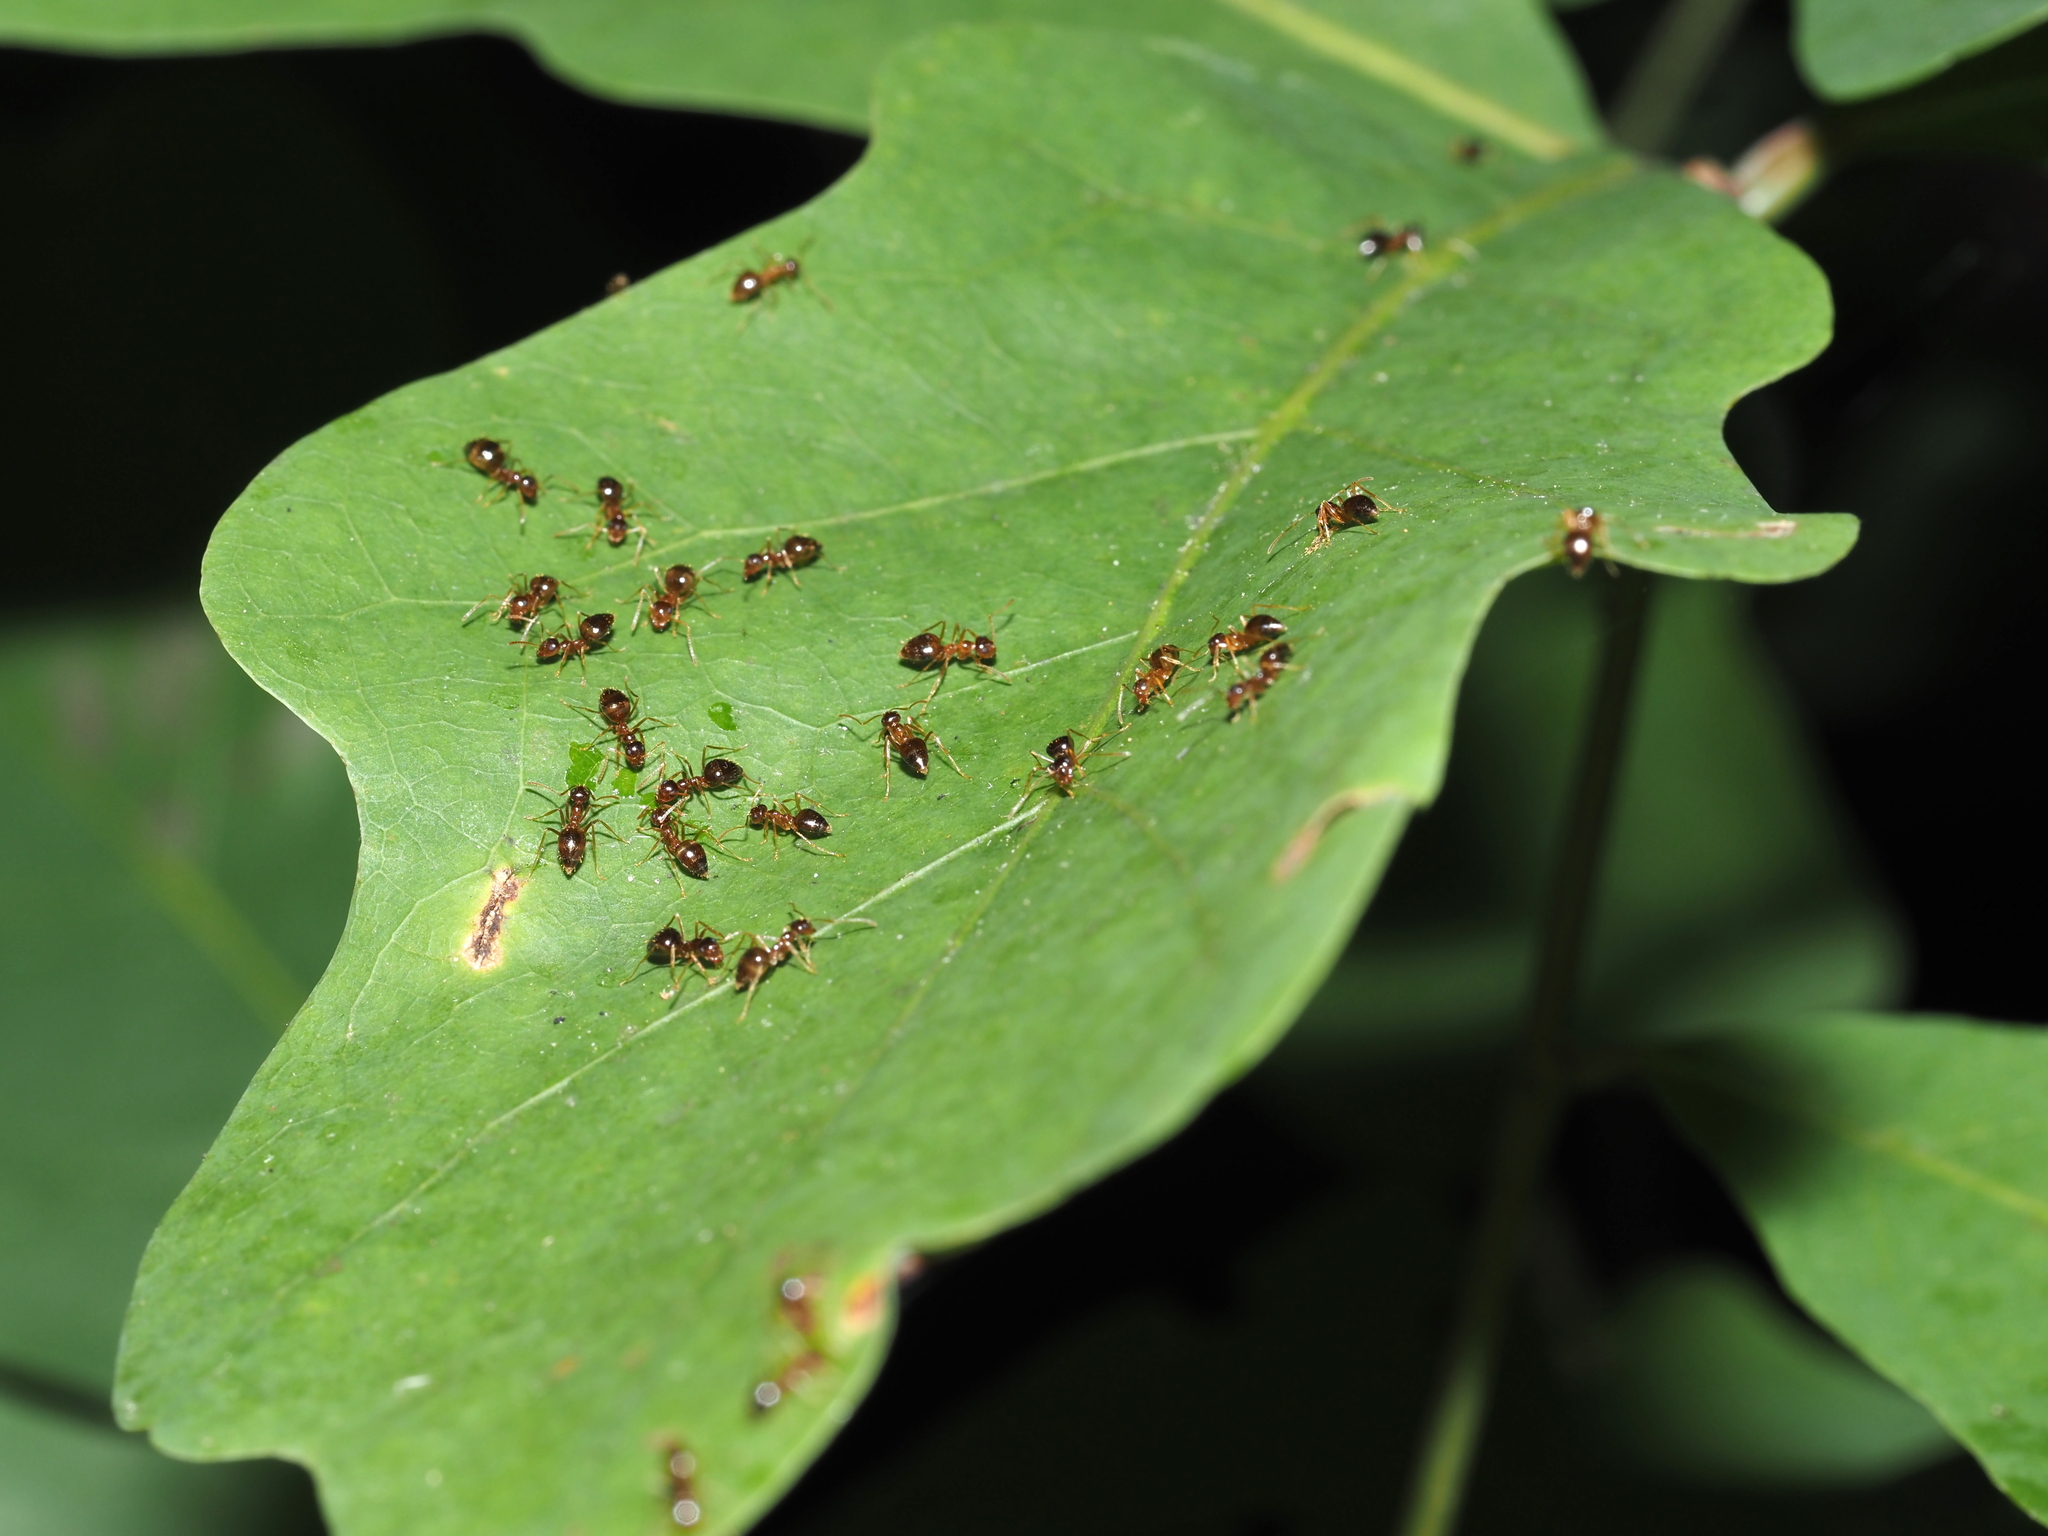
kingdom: Animalia
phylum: Arthropoda
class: Insecta
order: Hymenoptera
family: Formicidae
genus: Prenolepis
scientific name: Prenolepis imparis
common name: Small honey ant
